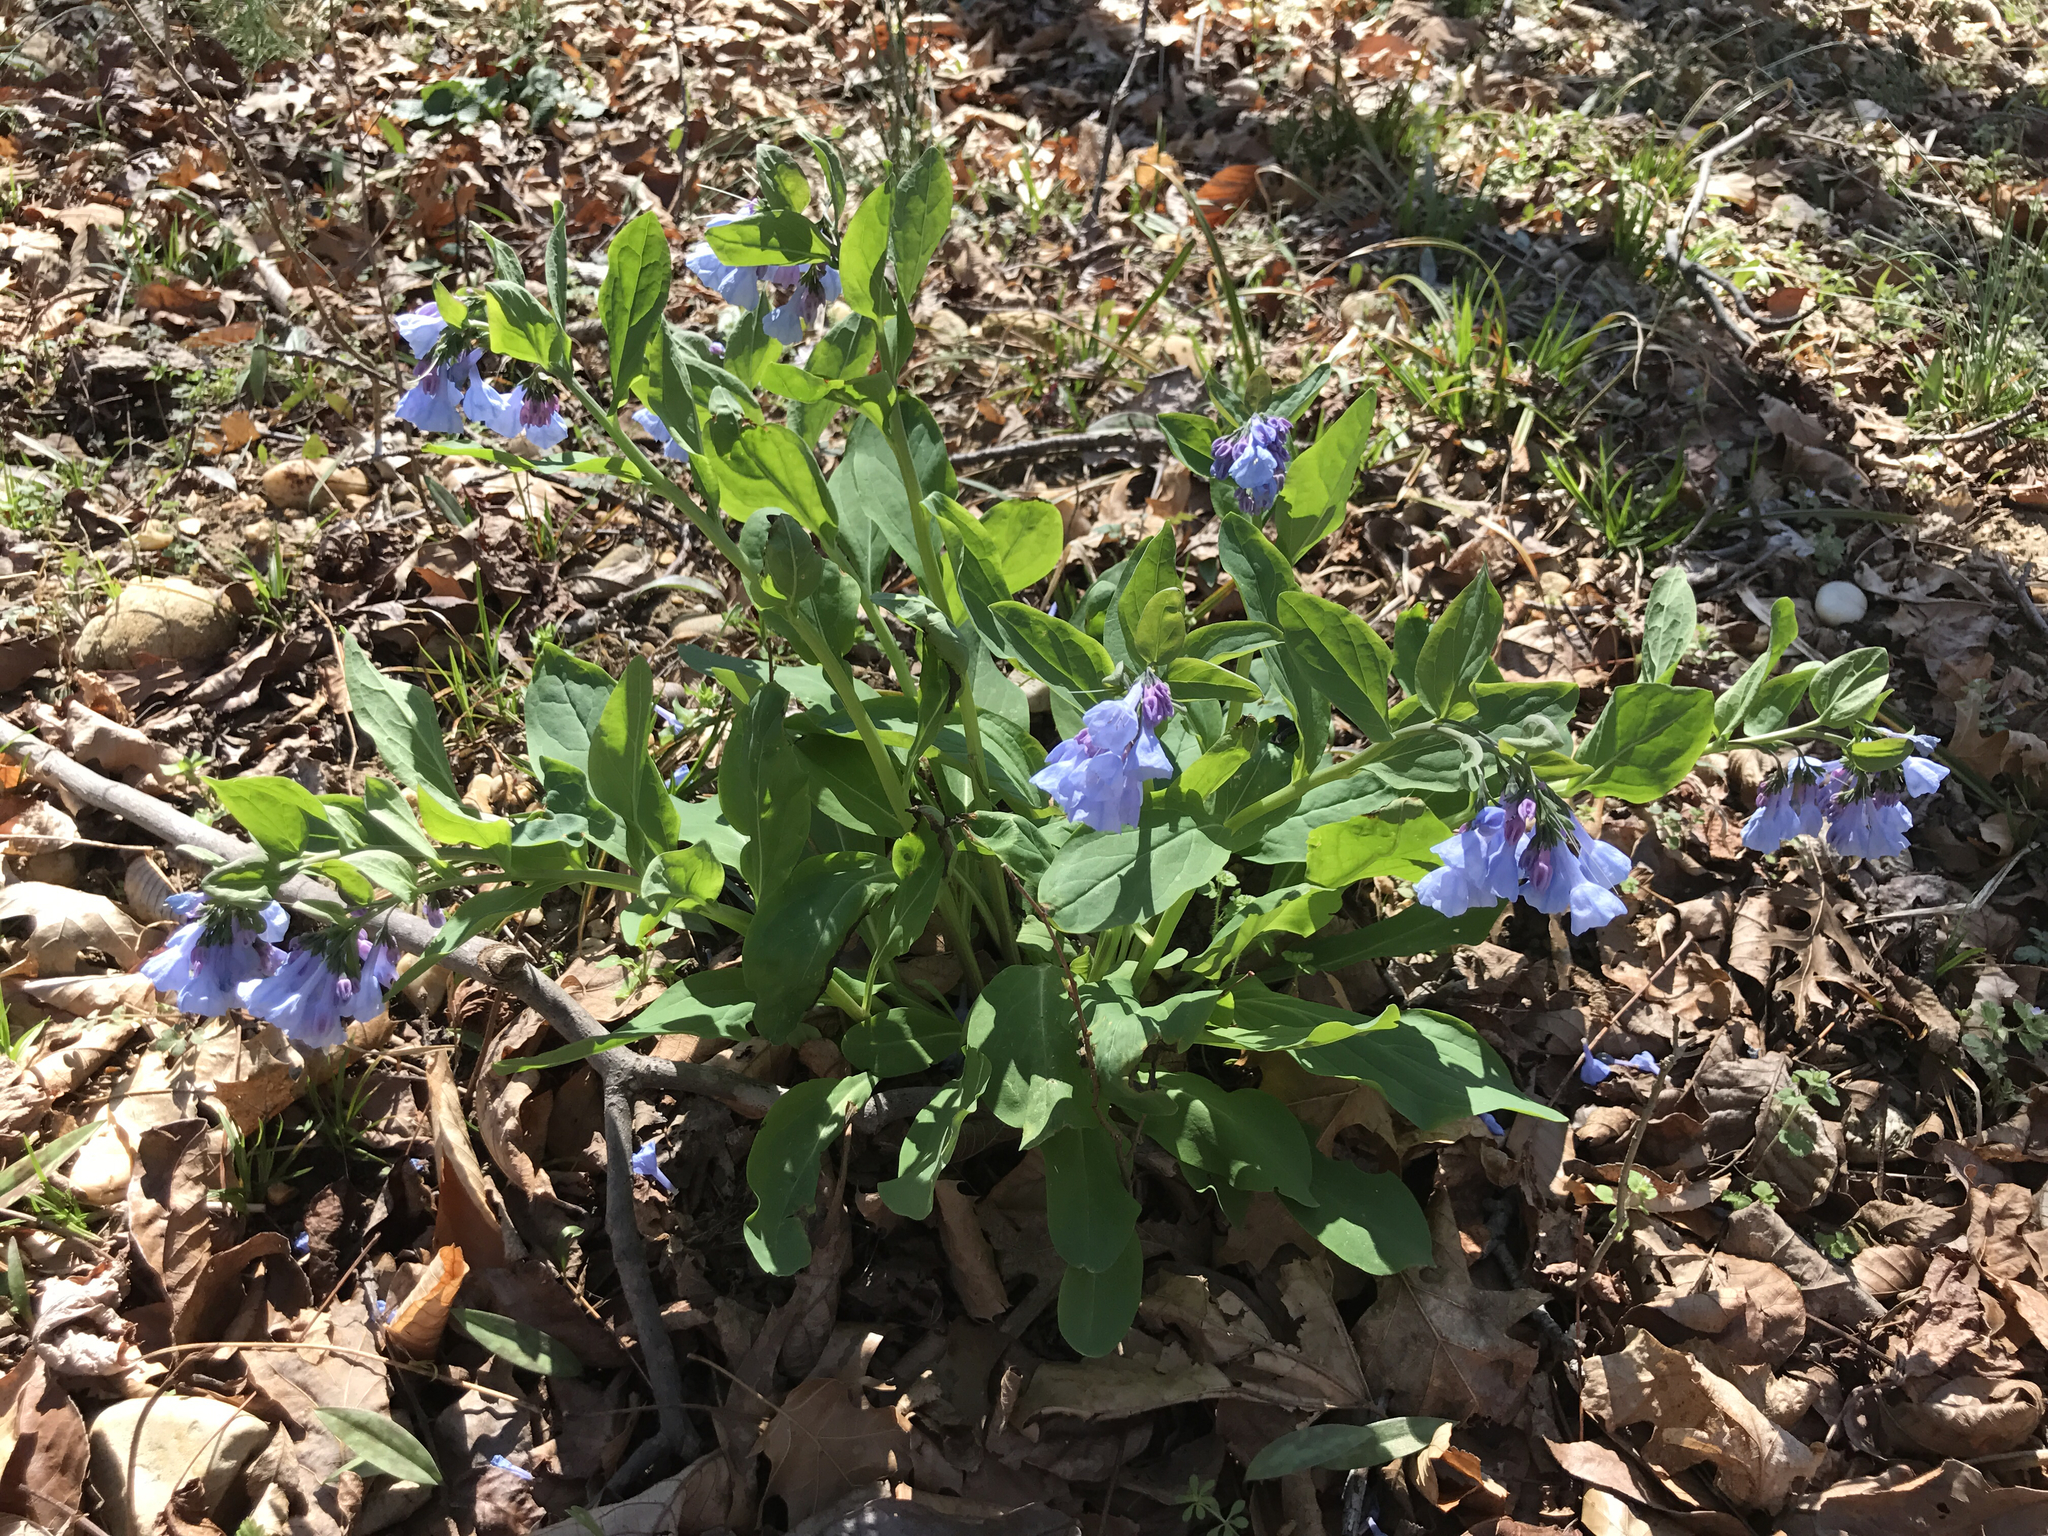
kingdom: Plantae
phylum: Tracheophyta
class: Magnoliopsida
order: Boraginales
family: Boraginaceae
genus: Mertensia
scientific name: Mertensia virginica
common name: Virginia bluebells
